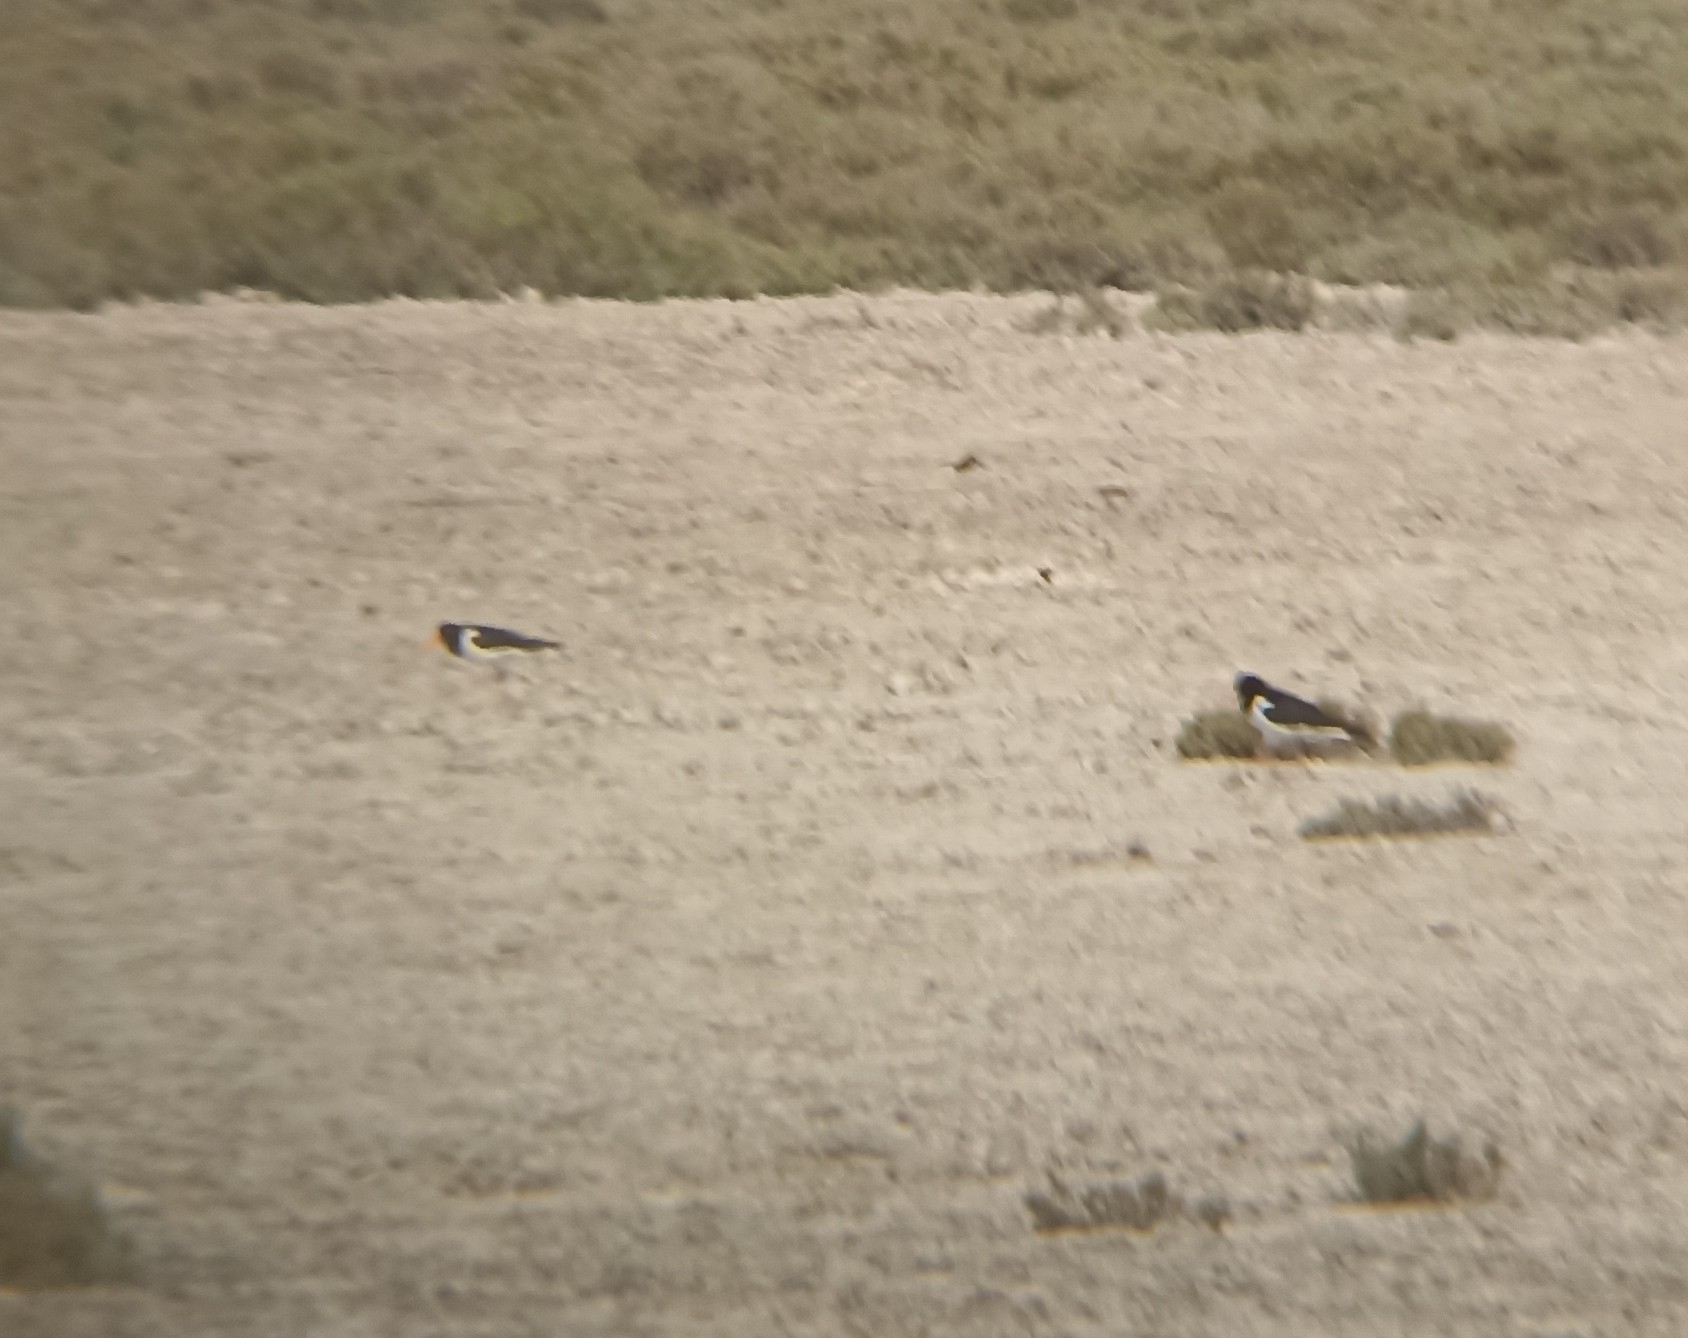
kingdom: Animalia
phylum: Chordata
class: Aves
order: Charadriiformes
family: Haematopodidae
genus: Haematopus
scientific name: Haematopus ostralegus
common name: Eurasian oystercatcher
